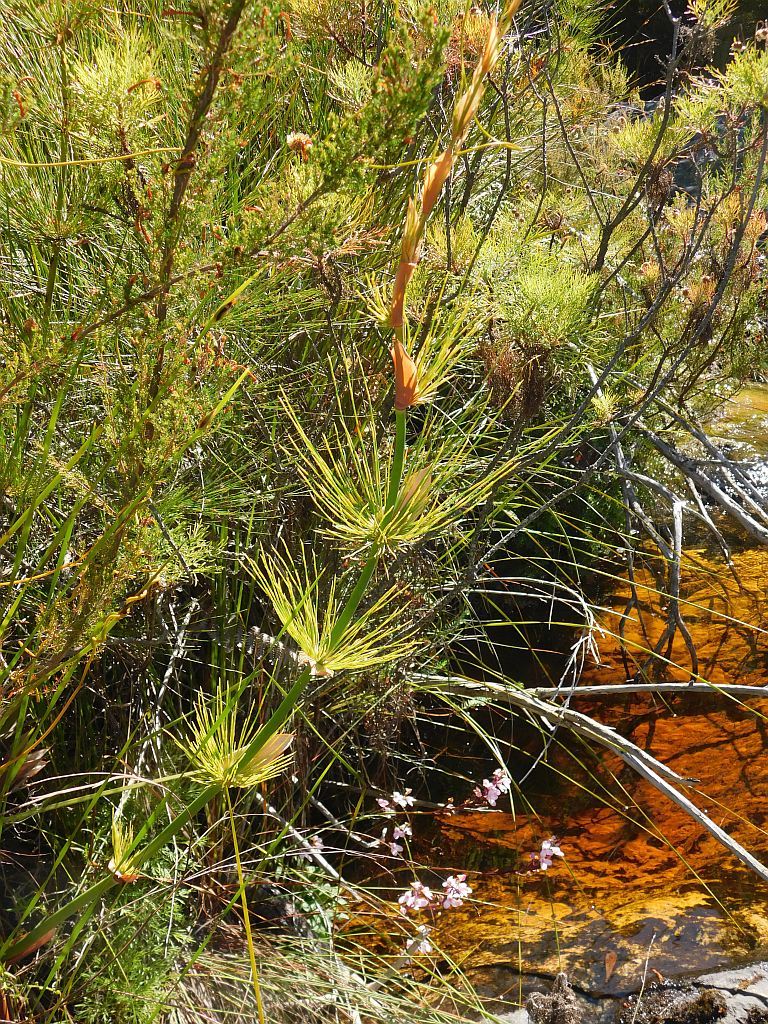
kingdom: Plantae
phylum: Tracheophyta
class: Liliopsida
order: Poales
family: Restionaceae
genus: Elegia
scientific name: Elegia capensis
